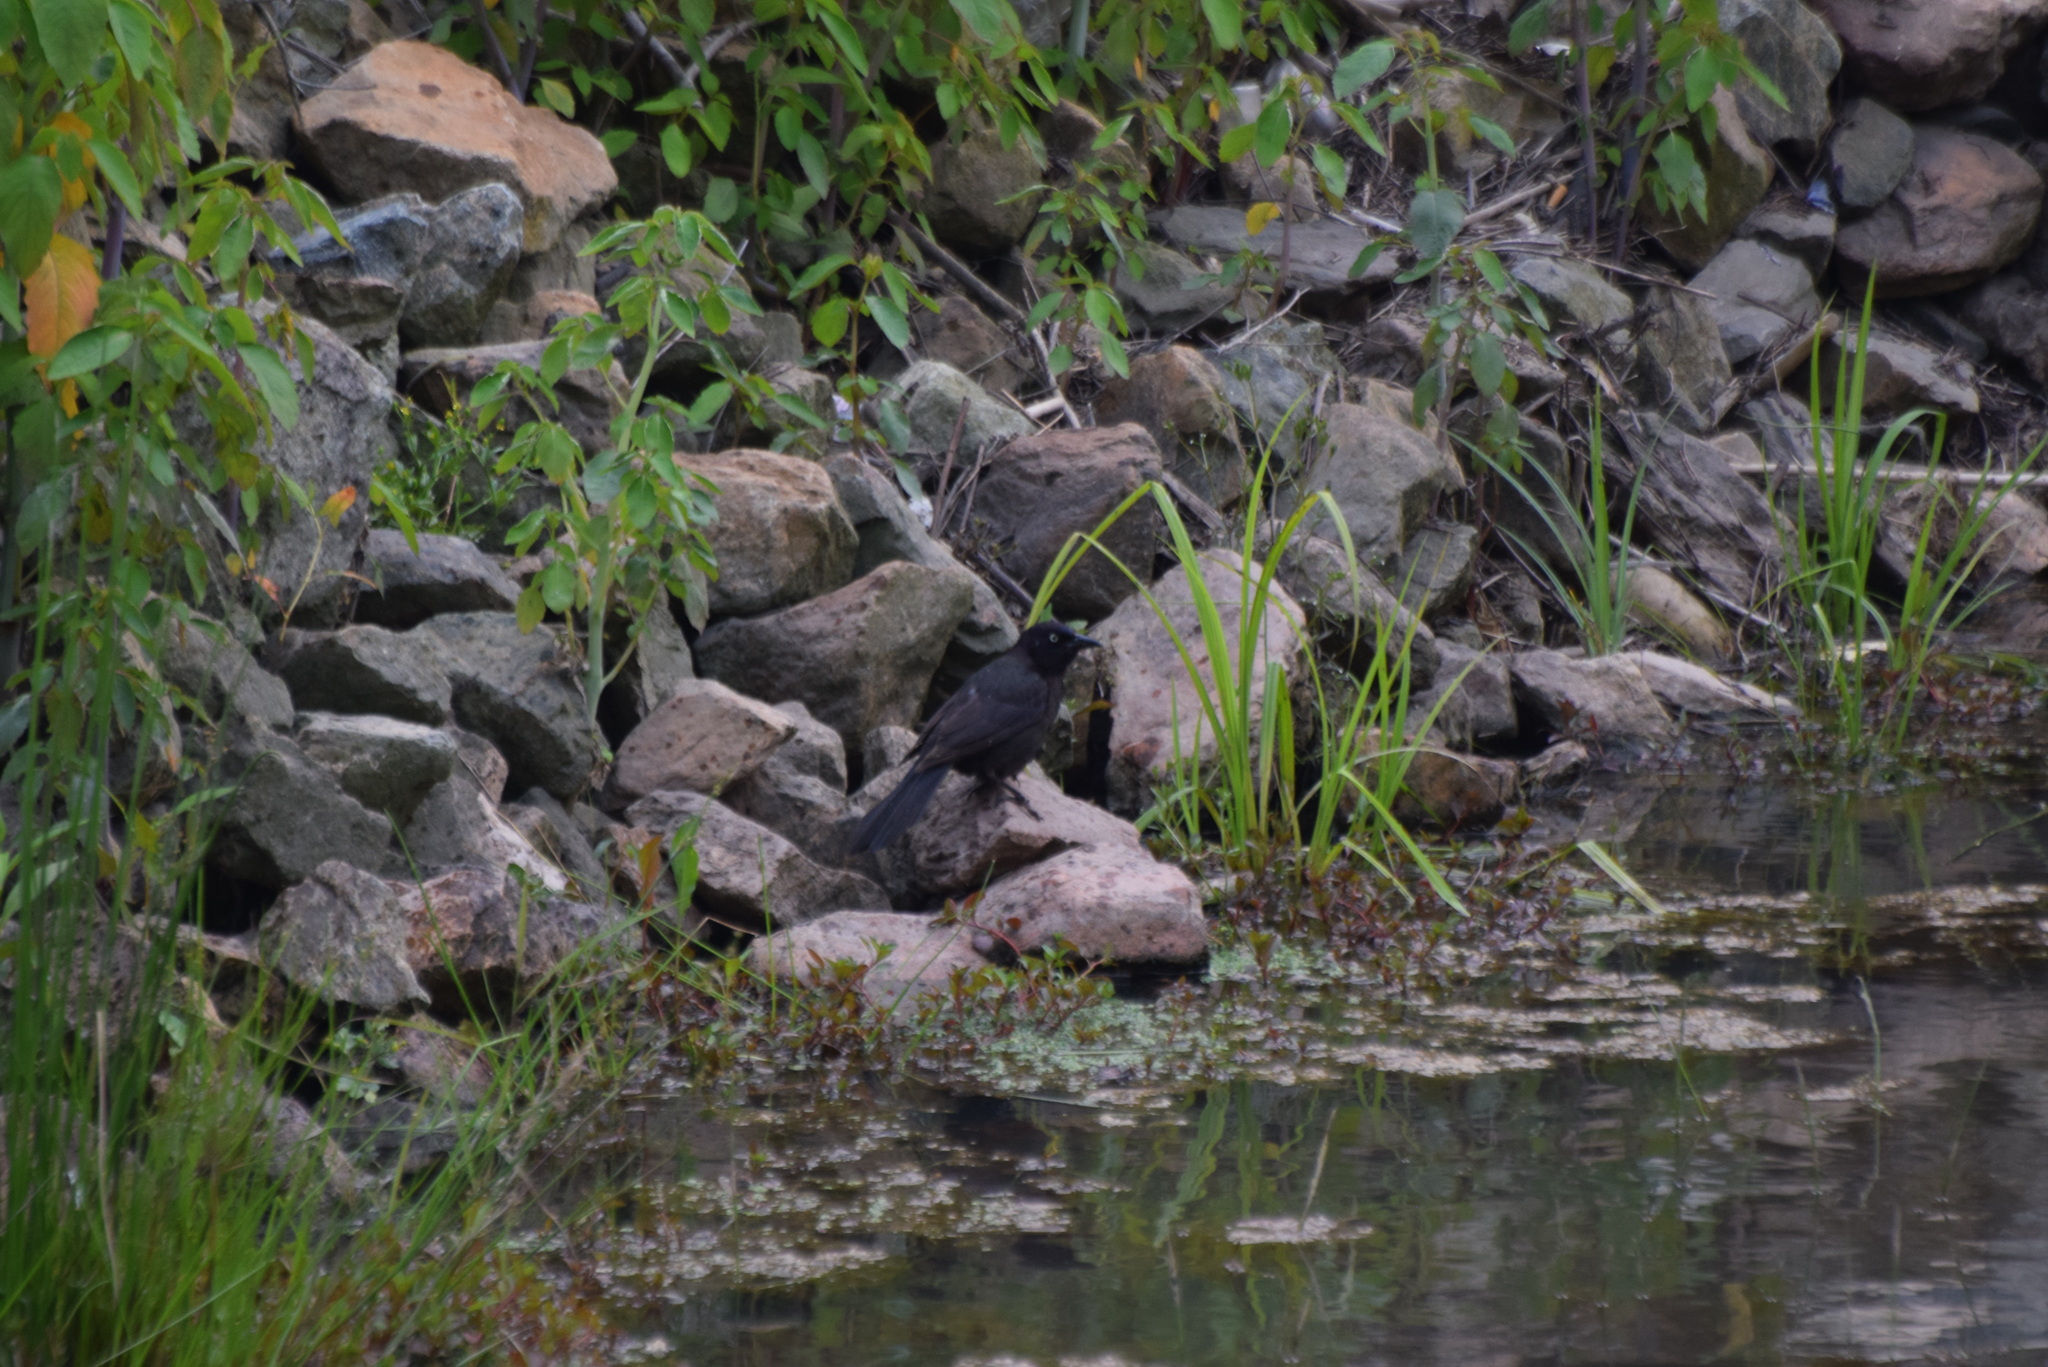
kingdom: Animalia
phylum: Chordata
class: Aves
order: Passeriformes
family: Icteridae
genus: Quiscalus
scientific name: Quiscalus quiscula
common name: Common grackle
